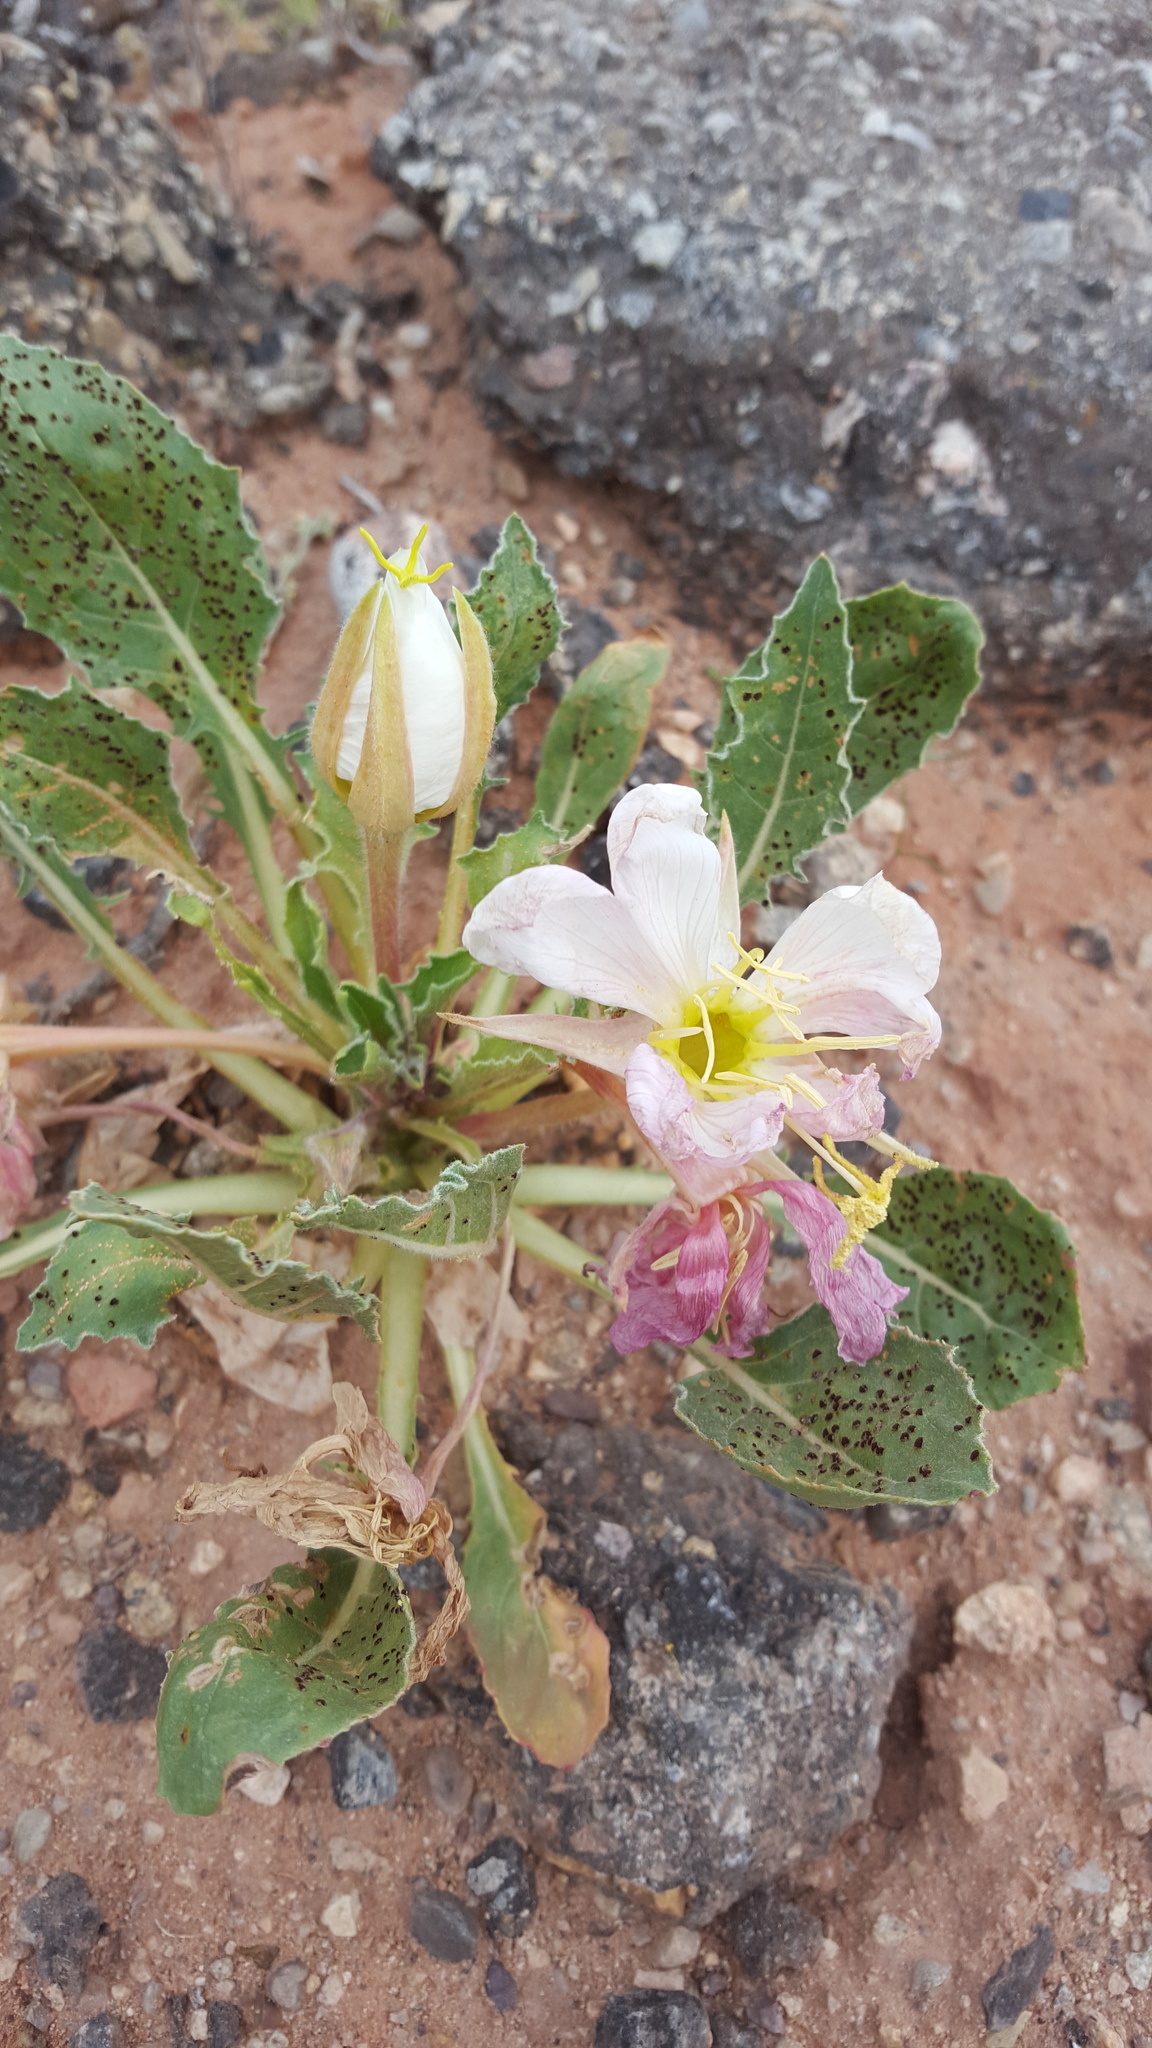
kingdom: Plantae
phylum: Tracheophyta
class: Magnoliopsida
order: Myrtales
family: Onagraceae
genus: Oenothera
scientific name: Oenothera cespitosa
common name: Tufted evening-primrose
